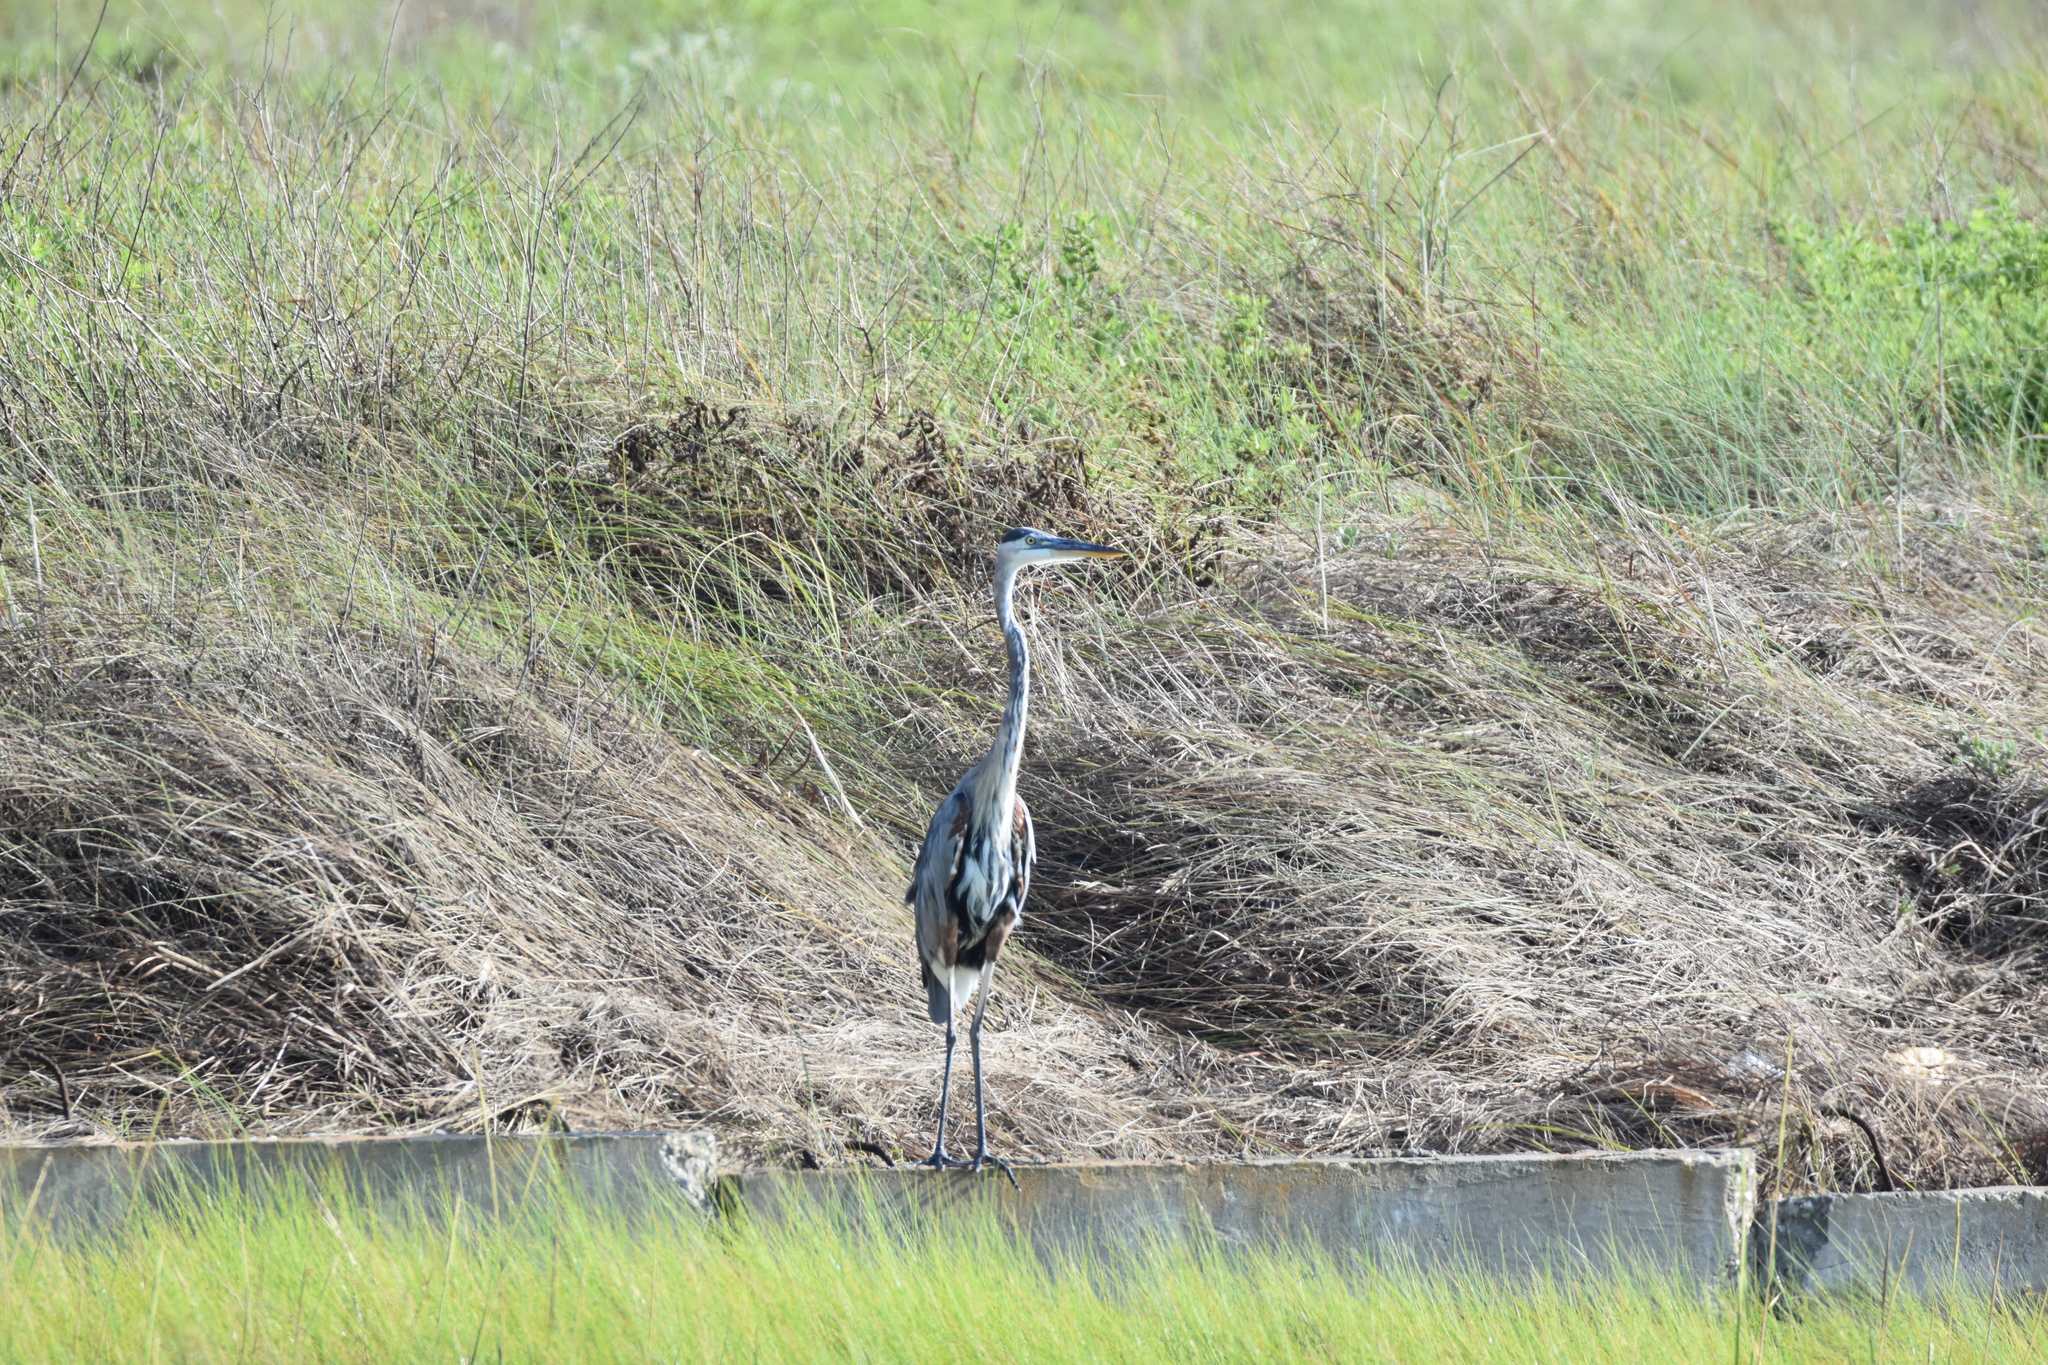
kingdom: Animalia
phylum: Chordata
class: Aves
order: Pelecaniformes
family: Ardeidae
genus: Ardea
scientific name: Ardea herodias
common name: Great blue heron
